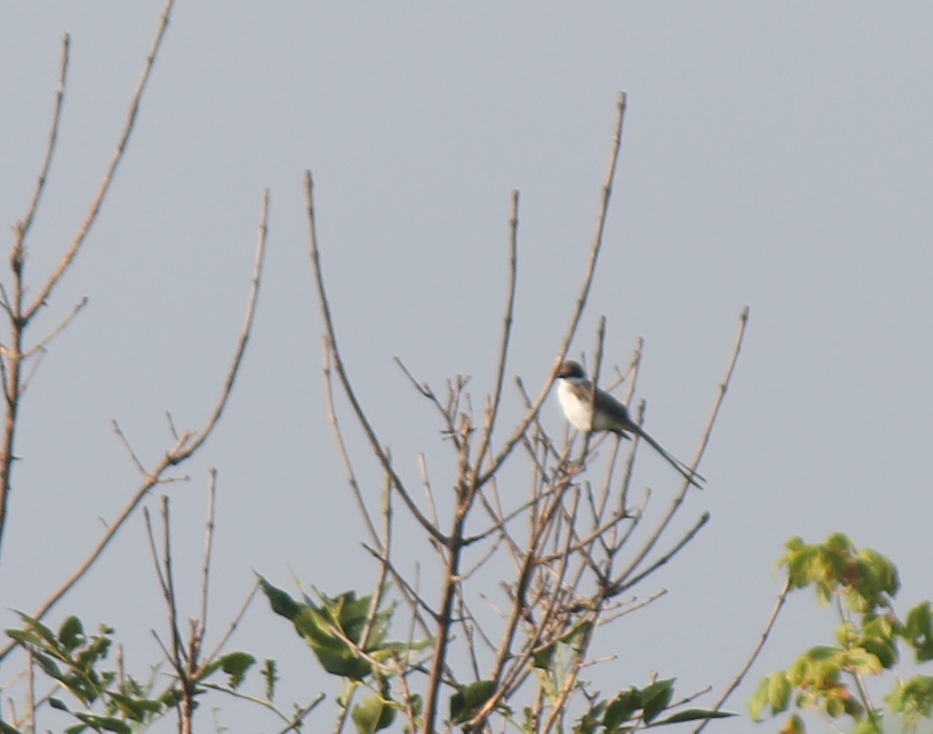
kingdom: Animalia
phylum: Chordata
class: Aves
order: Passeriformes
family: Tyrannidae
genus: Tyrannus
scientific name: Tyrannus savana
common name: Fork-tailed flycatcher
